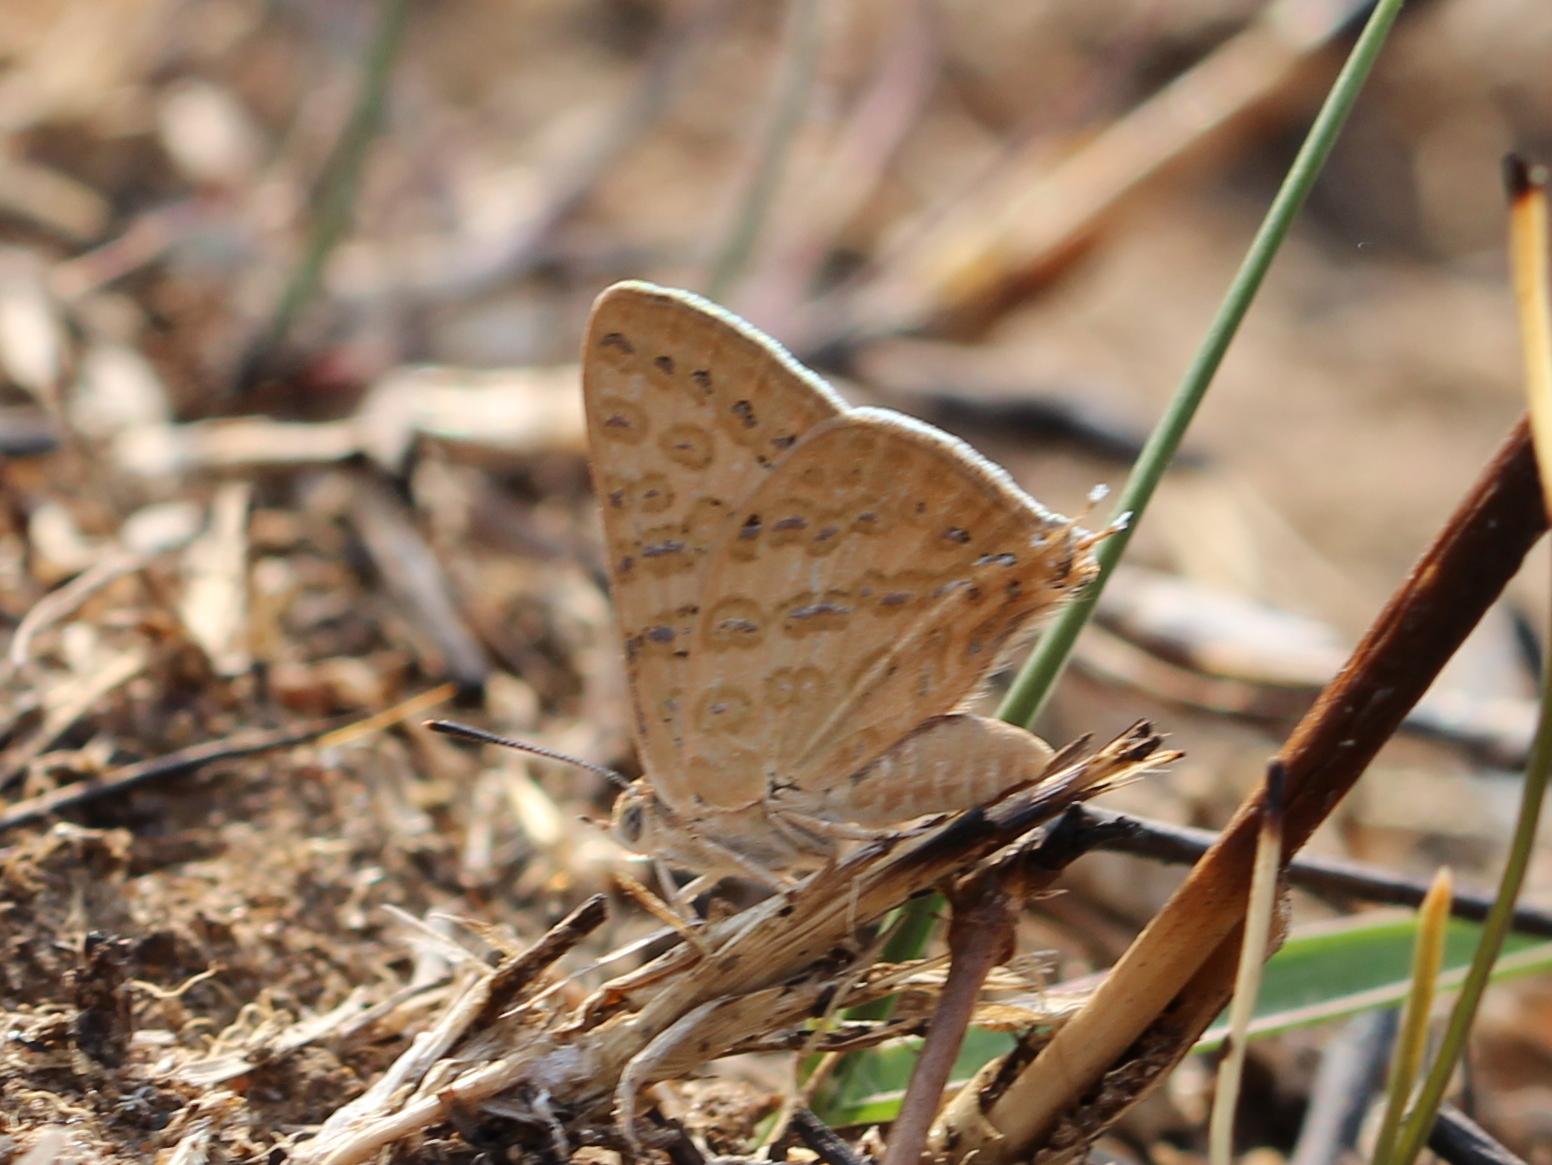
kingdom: Animalia
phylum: Arthropoda
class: Insecta
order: Lepidoptera
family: Lycaenidae
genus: Aphnaeus
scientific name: Aphnaeus lilacinus
